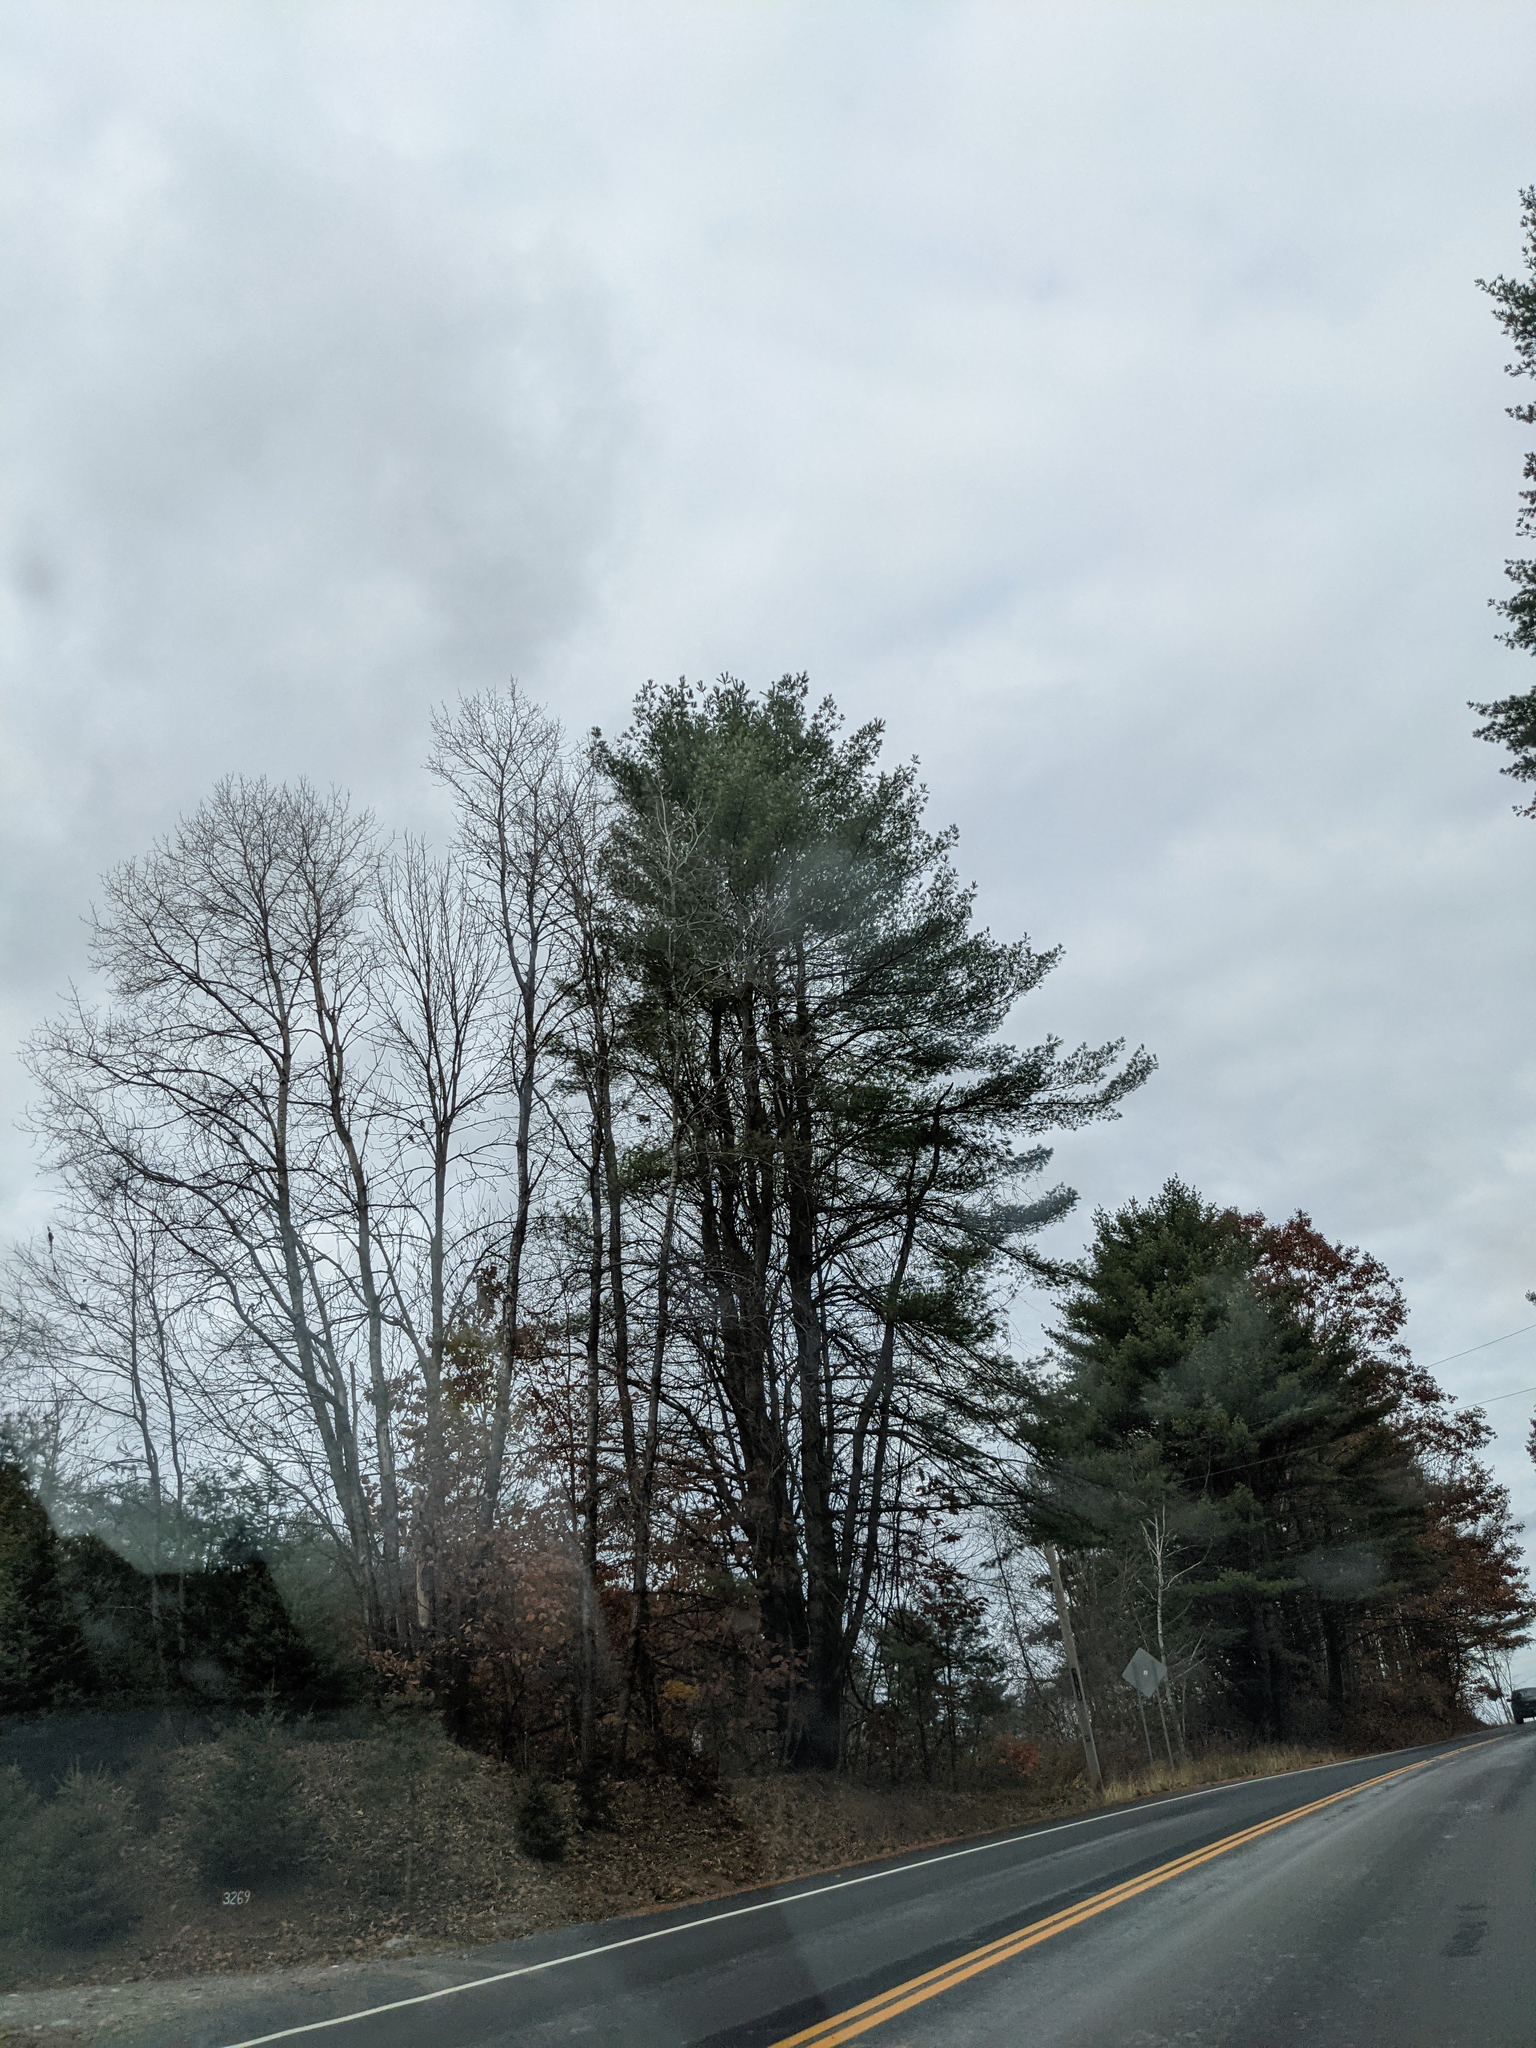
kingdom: Plantae
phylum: Tracheophyta
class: Pinopsida
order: Pinales
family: Pinaceae
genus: Pinus
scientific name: Pinus strobus
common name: Weymouth pine
